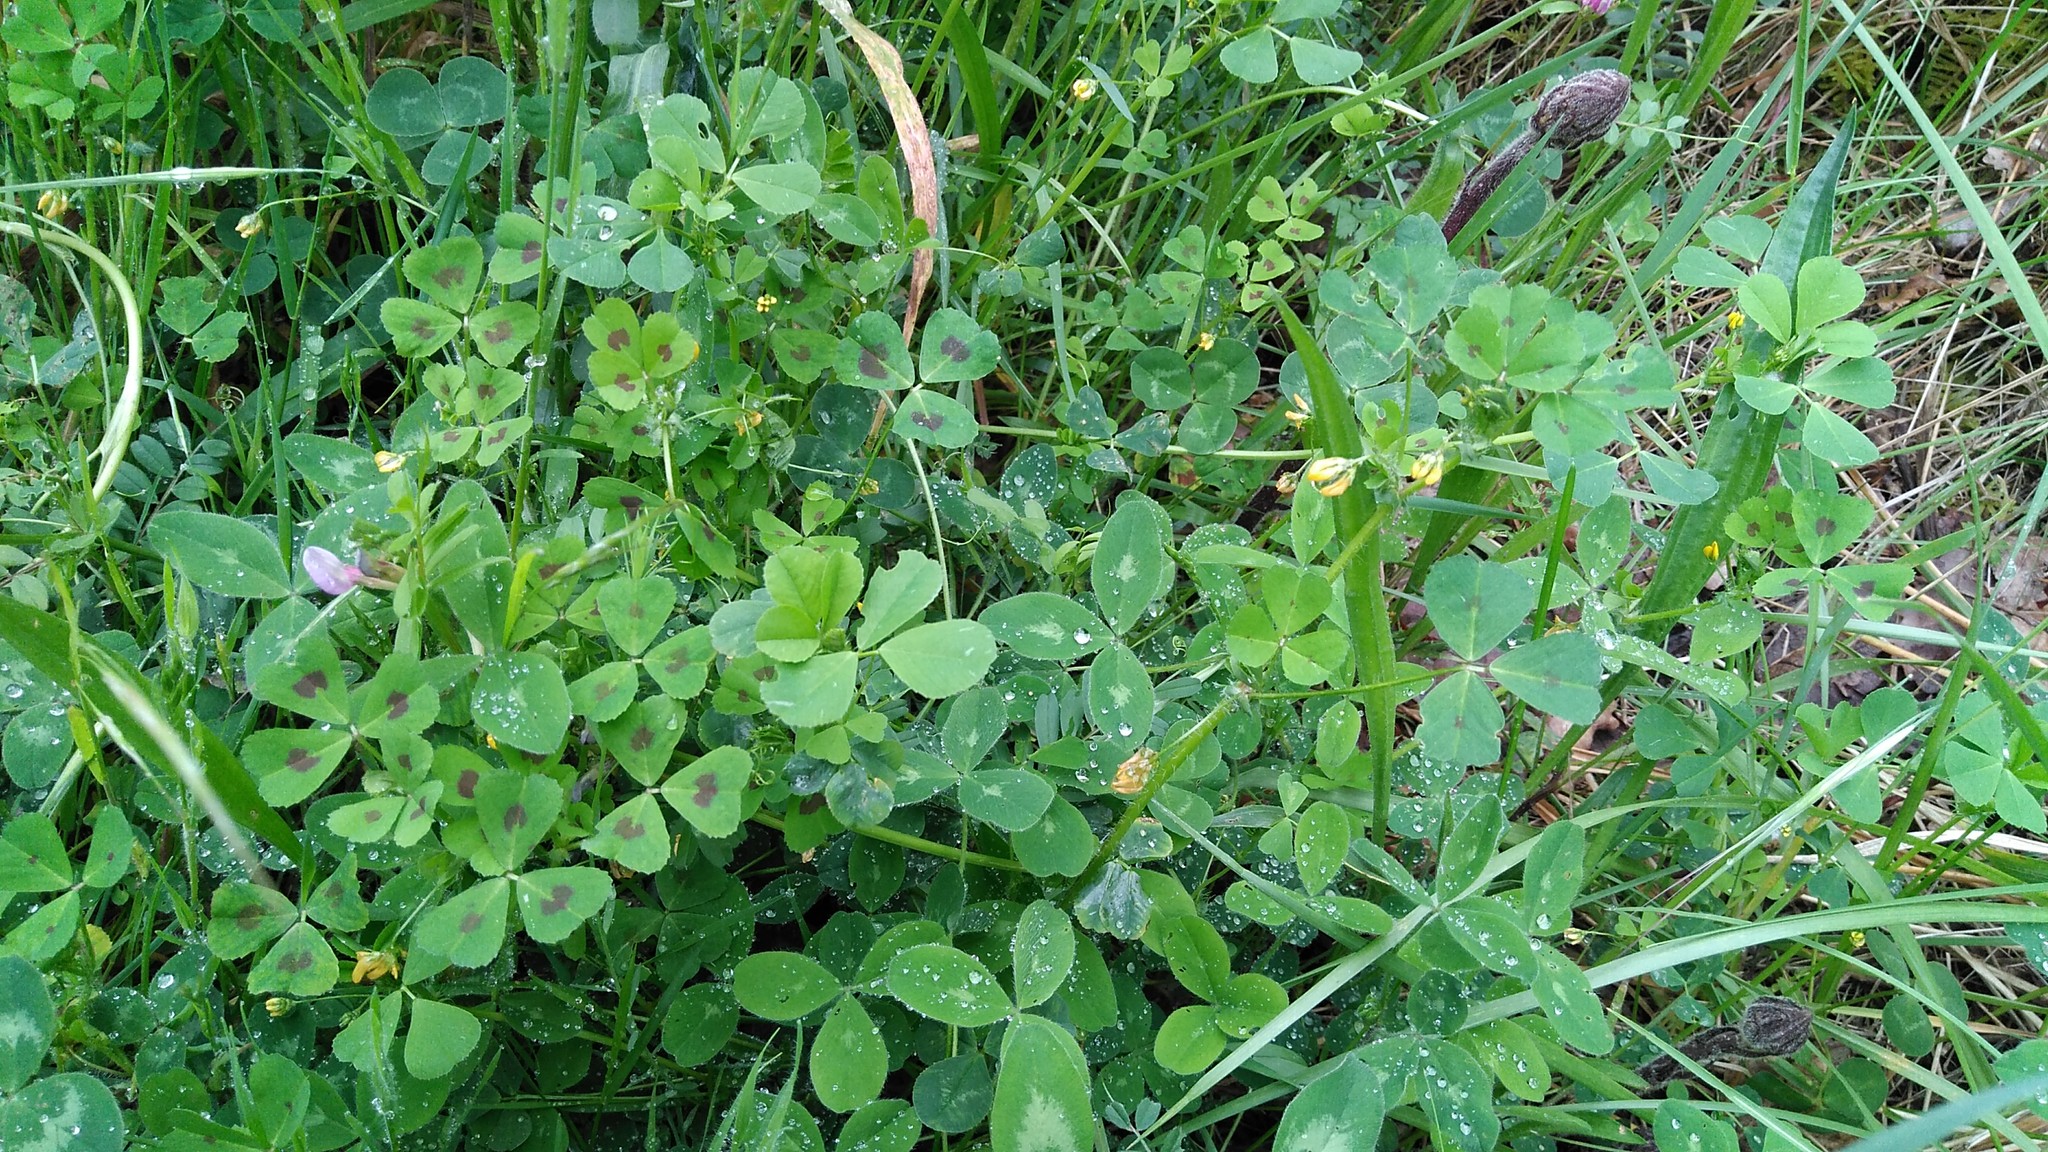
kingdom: Plantae
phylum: Tracheophyta
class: Magnoliopsida
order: Fabales
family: Fabaceae
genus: Medicago
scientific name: Medicago arabica
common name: Spotted medick
